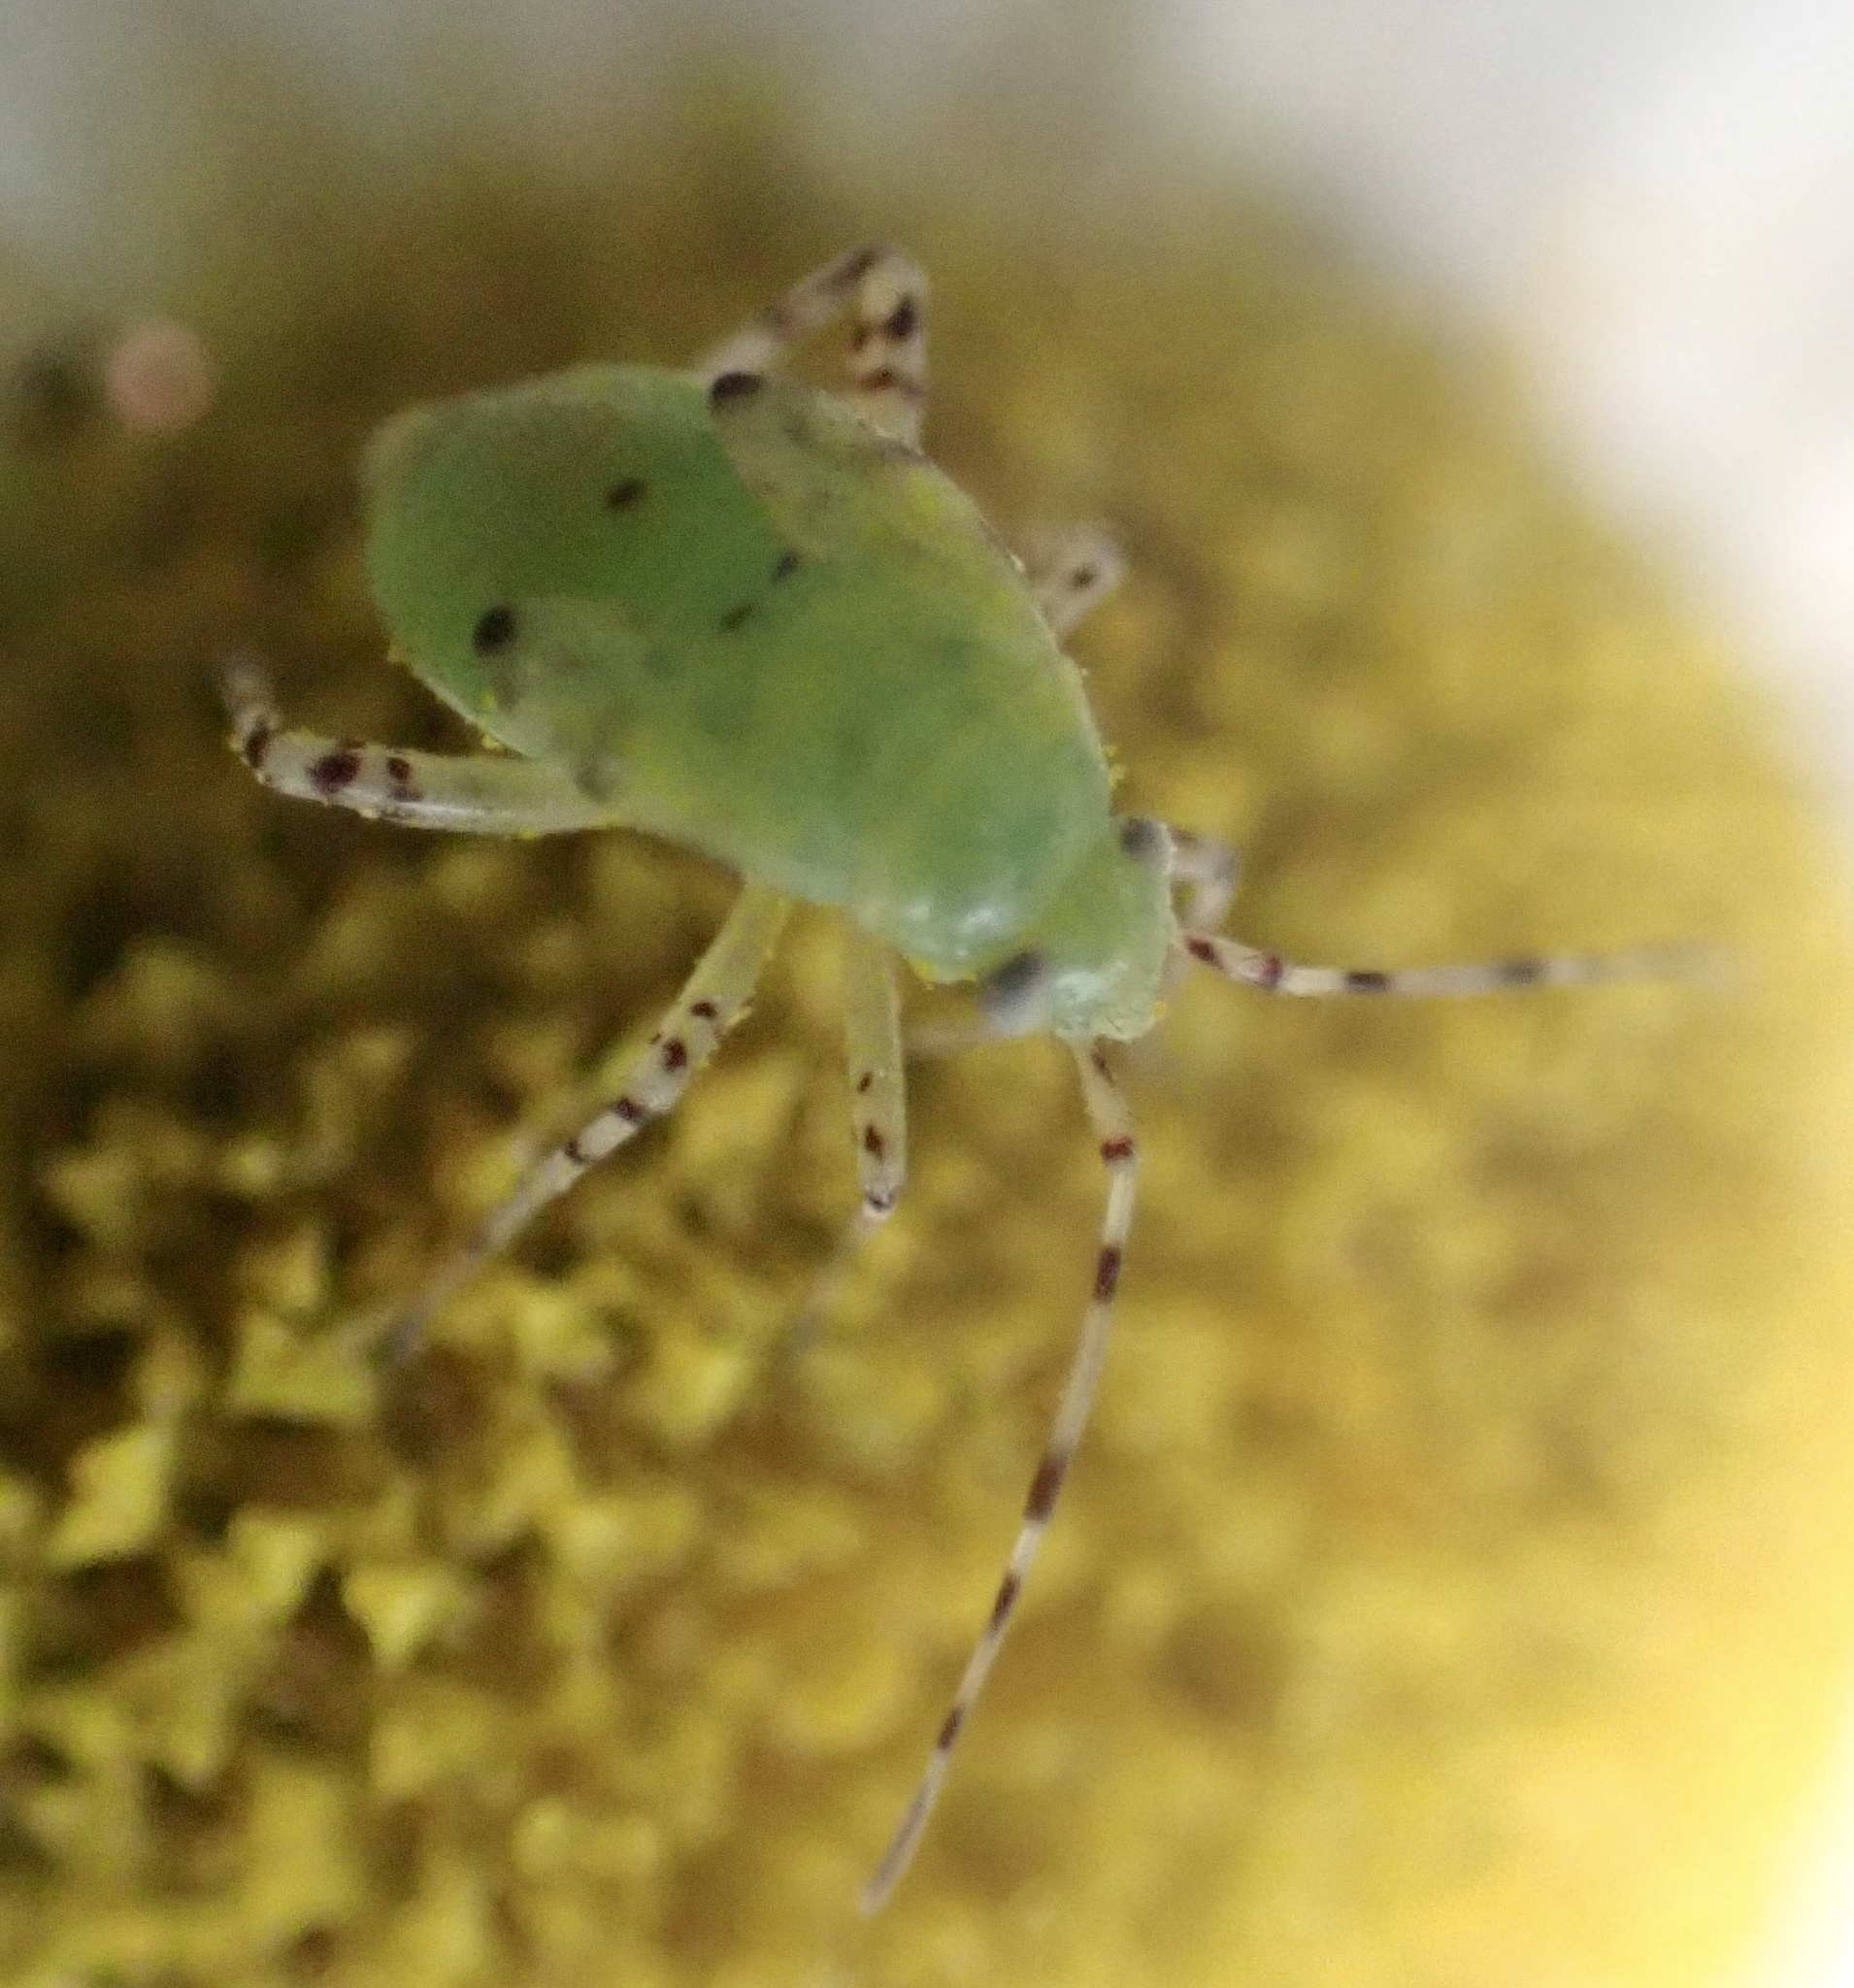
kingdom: Animalia
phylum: Arthropoda
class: Insecta
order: Hemiptera
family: Miridae
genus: Liocoris
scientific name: Liocoris tripustulatus
